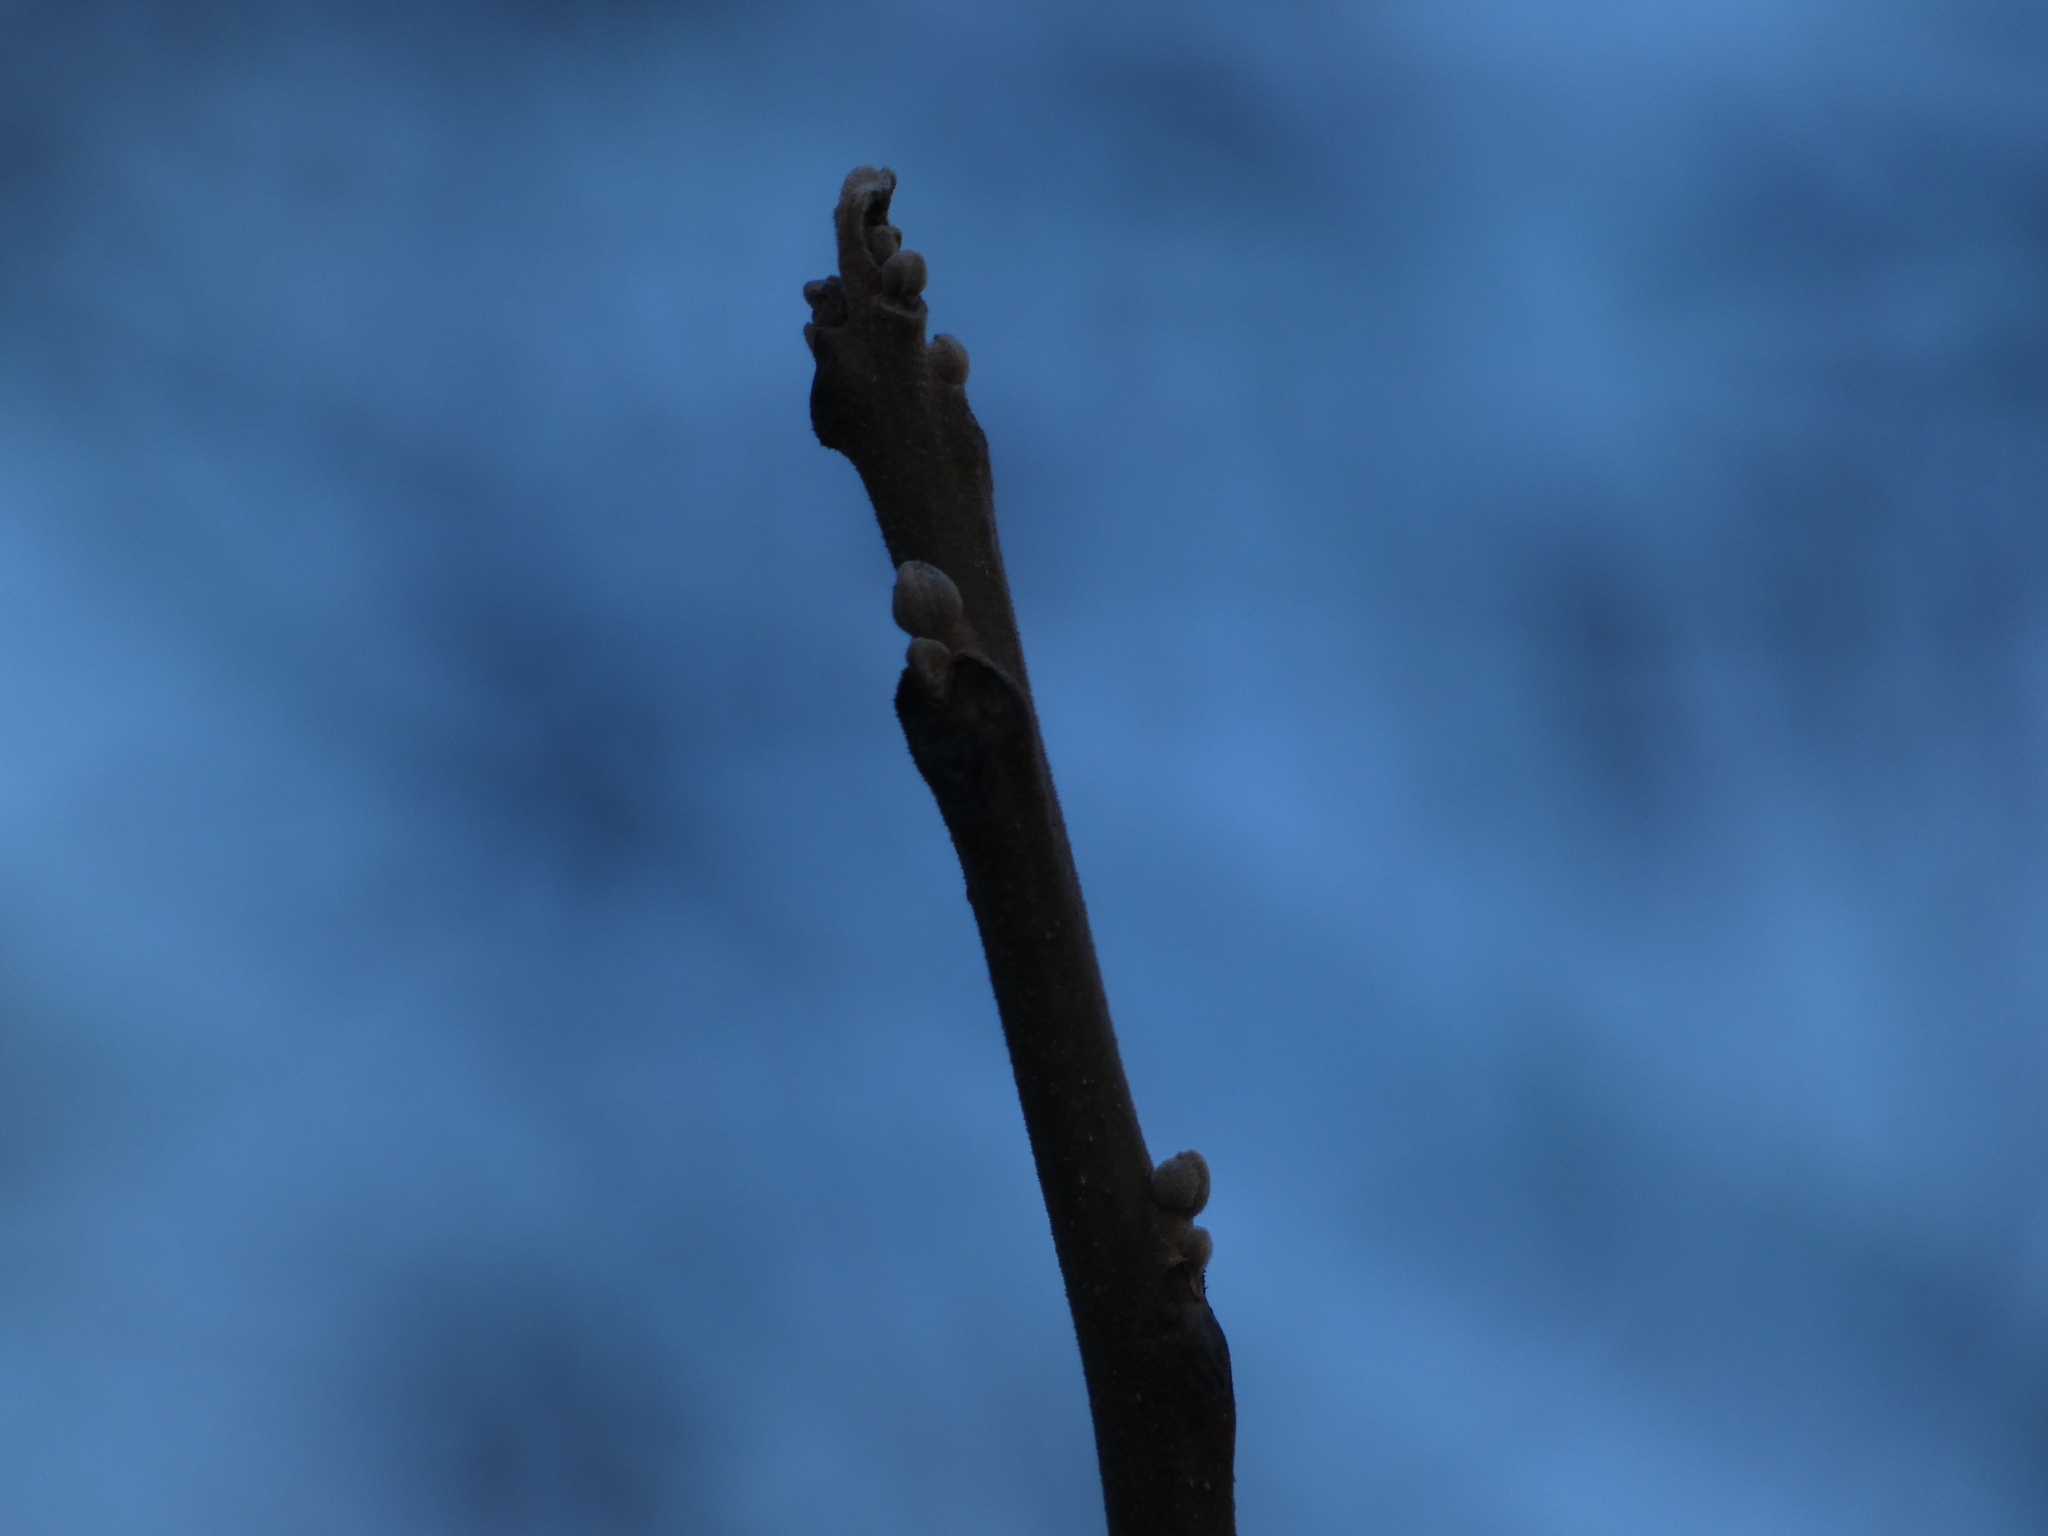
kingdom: Plantae
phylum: Tracheophyta
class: Magnoliopsida
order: Fagales
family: Juglandaceae
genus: Juglans
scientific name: Juglans nigra
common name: Black walnut
